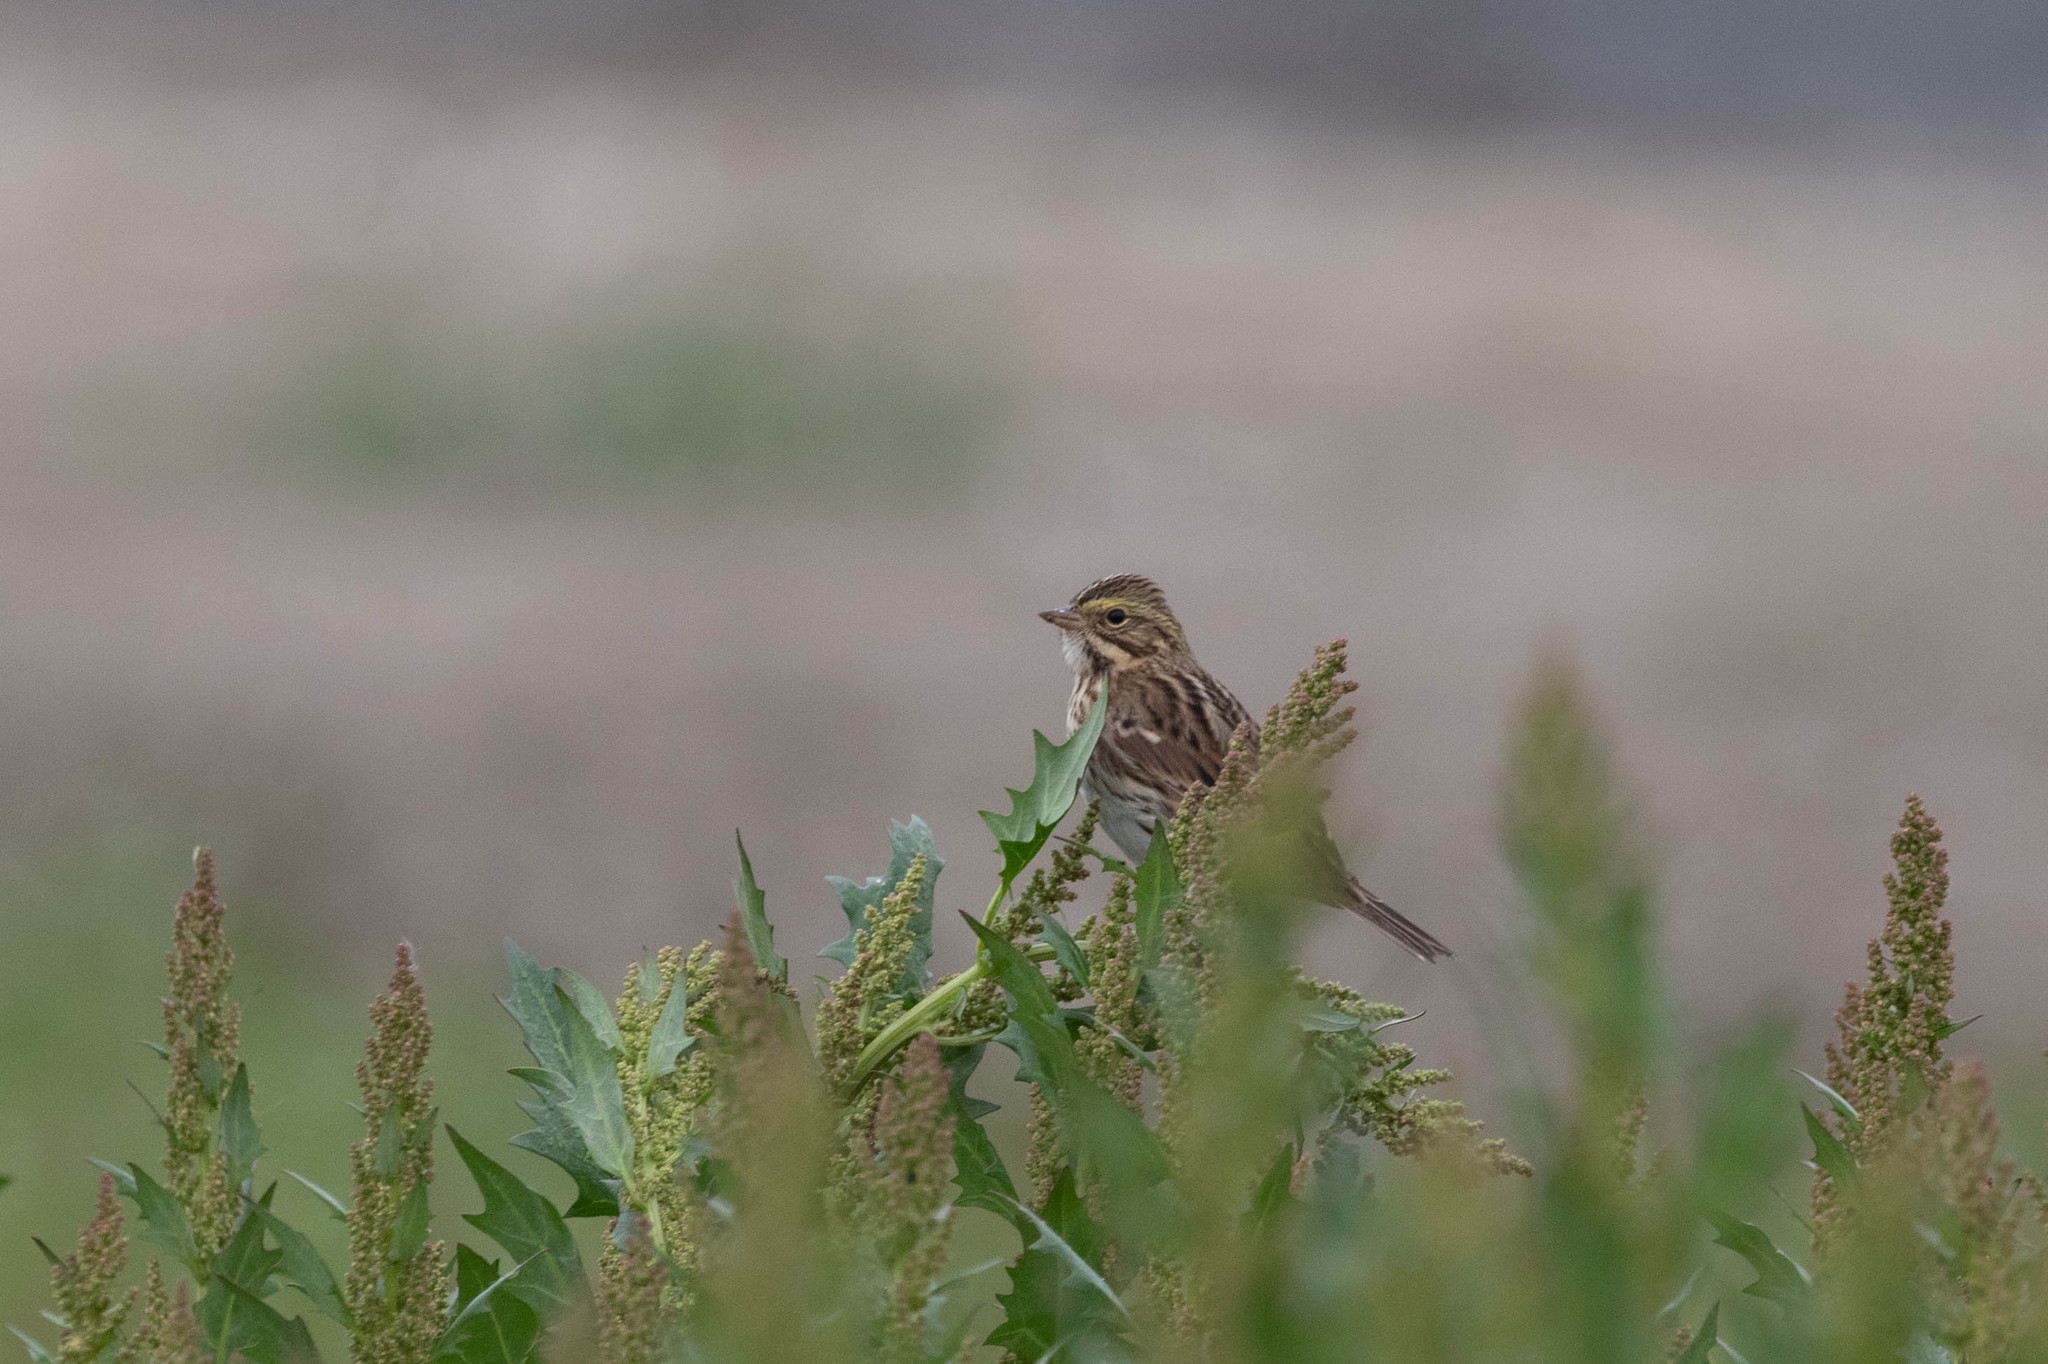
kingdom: Animalia
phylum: Chordata
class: Aves
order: Passeriformes
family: Passerellidae
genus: Passerculus
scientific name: Passerculus sandwichensis
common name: Savannah sparrow
